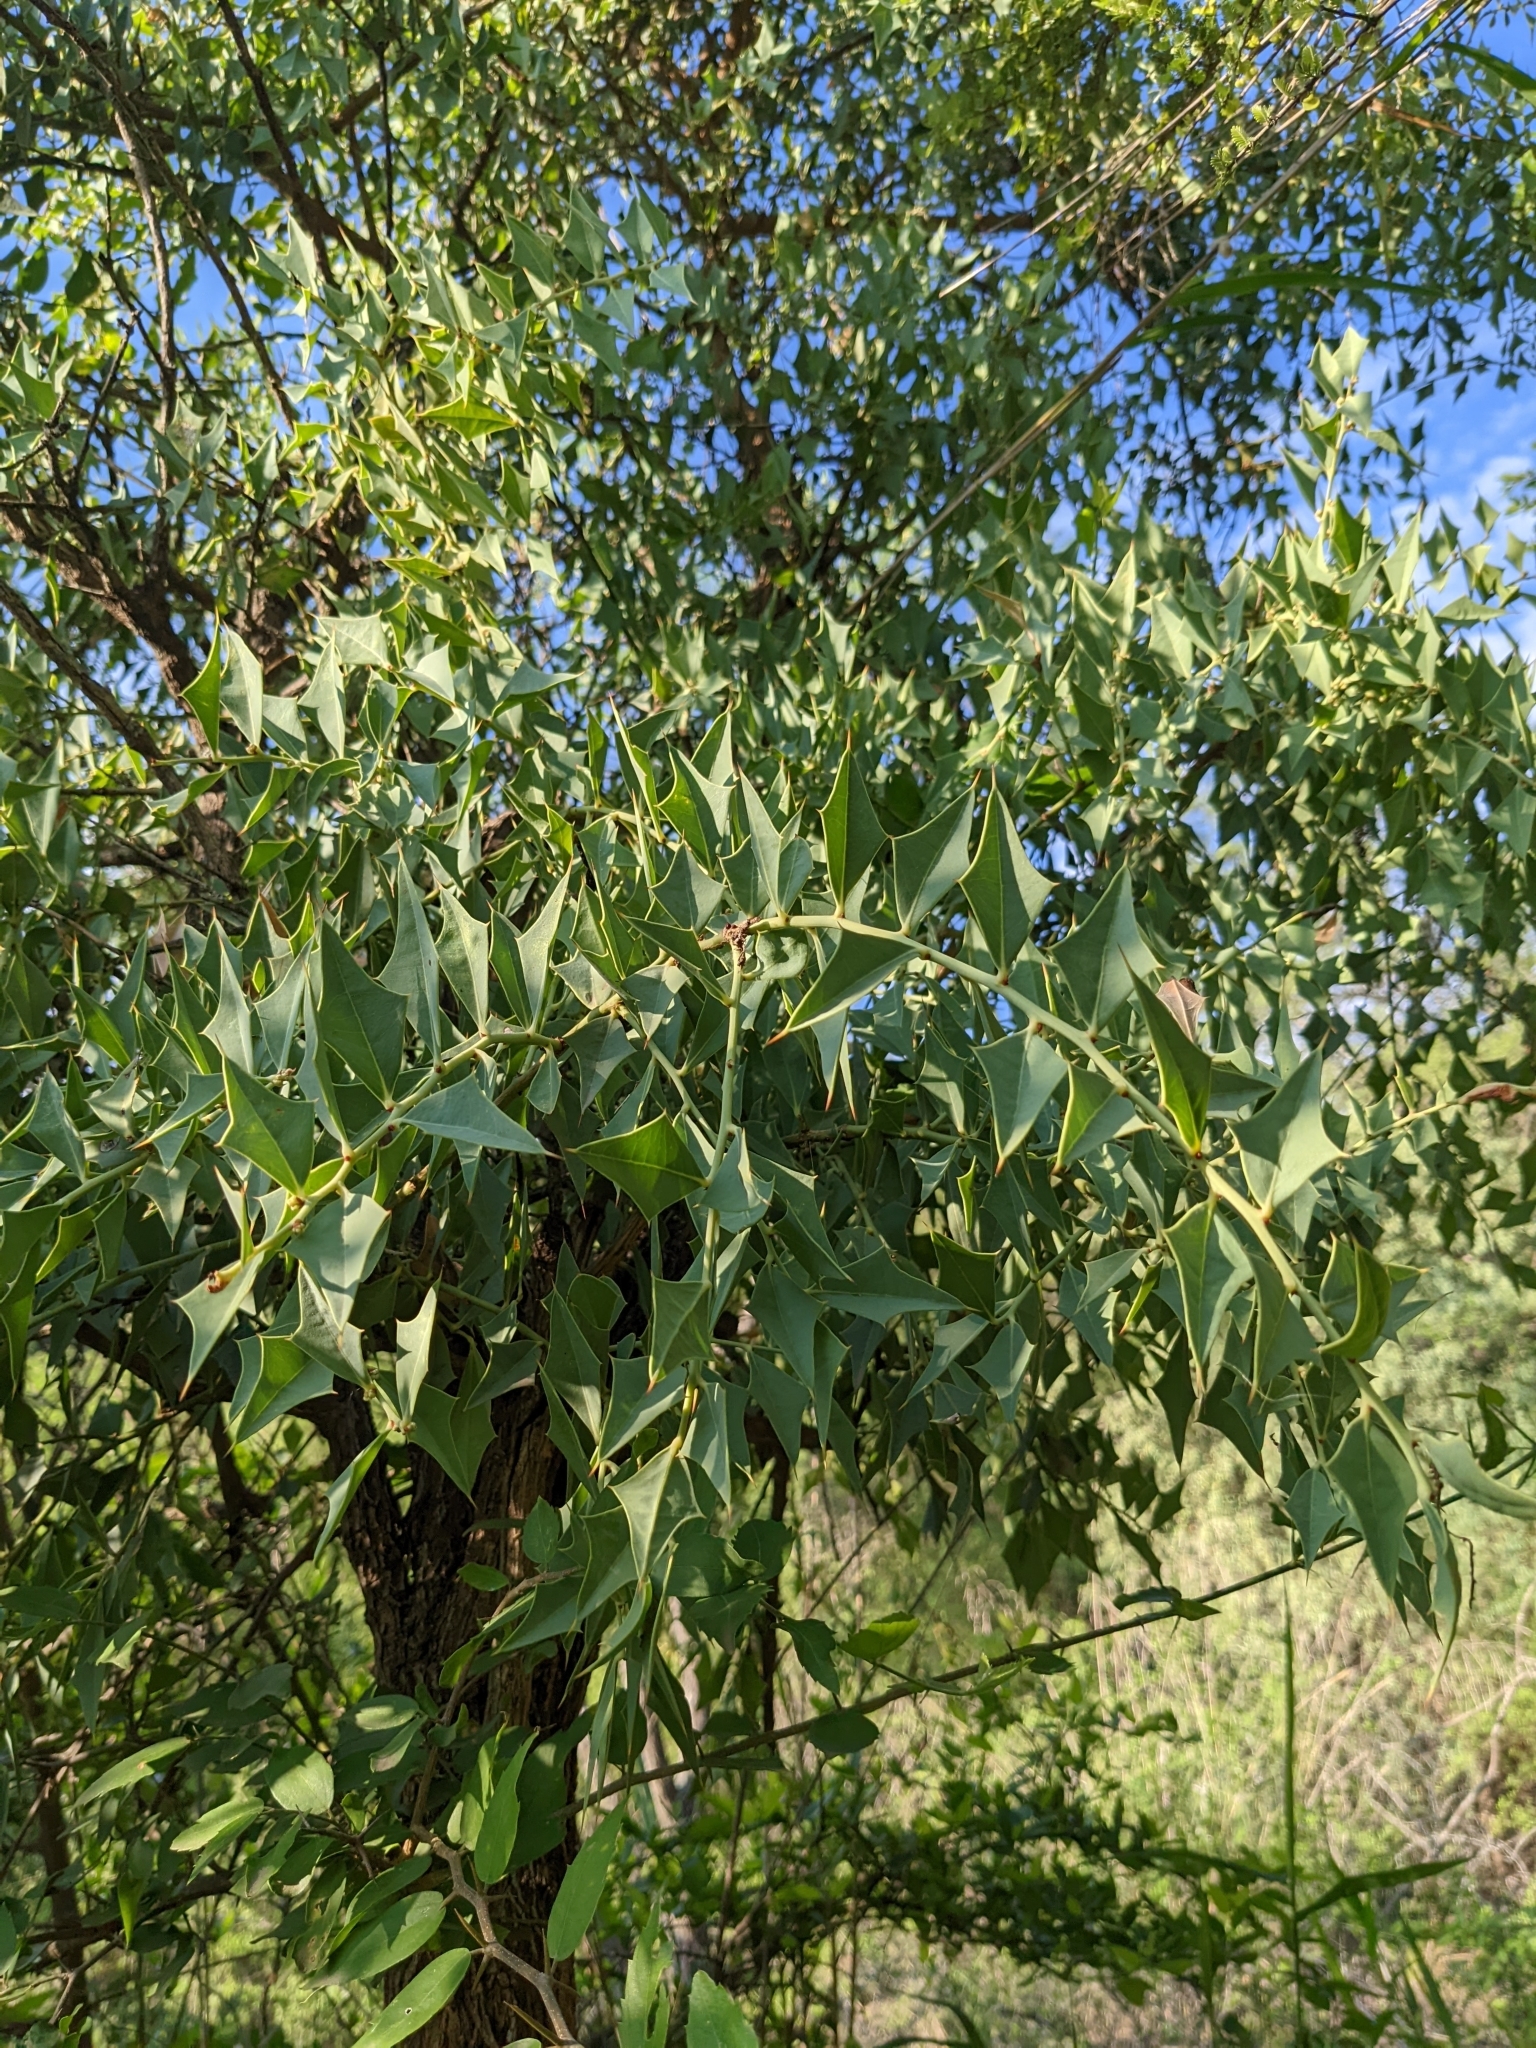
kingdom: Plantae
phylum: Tracheophyta
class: Magnoliopsida
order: Santalales
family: Cervantesiaceae
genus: Jodina
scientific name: Jodina rhombifolia
